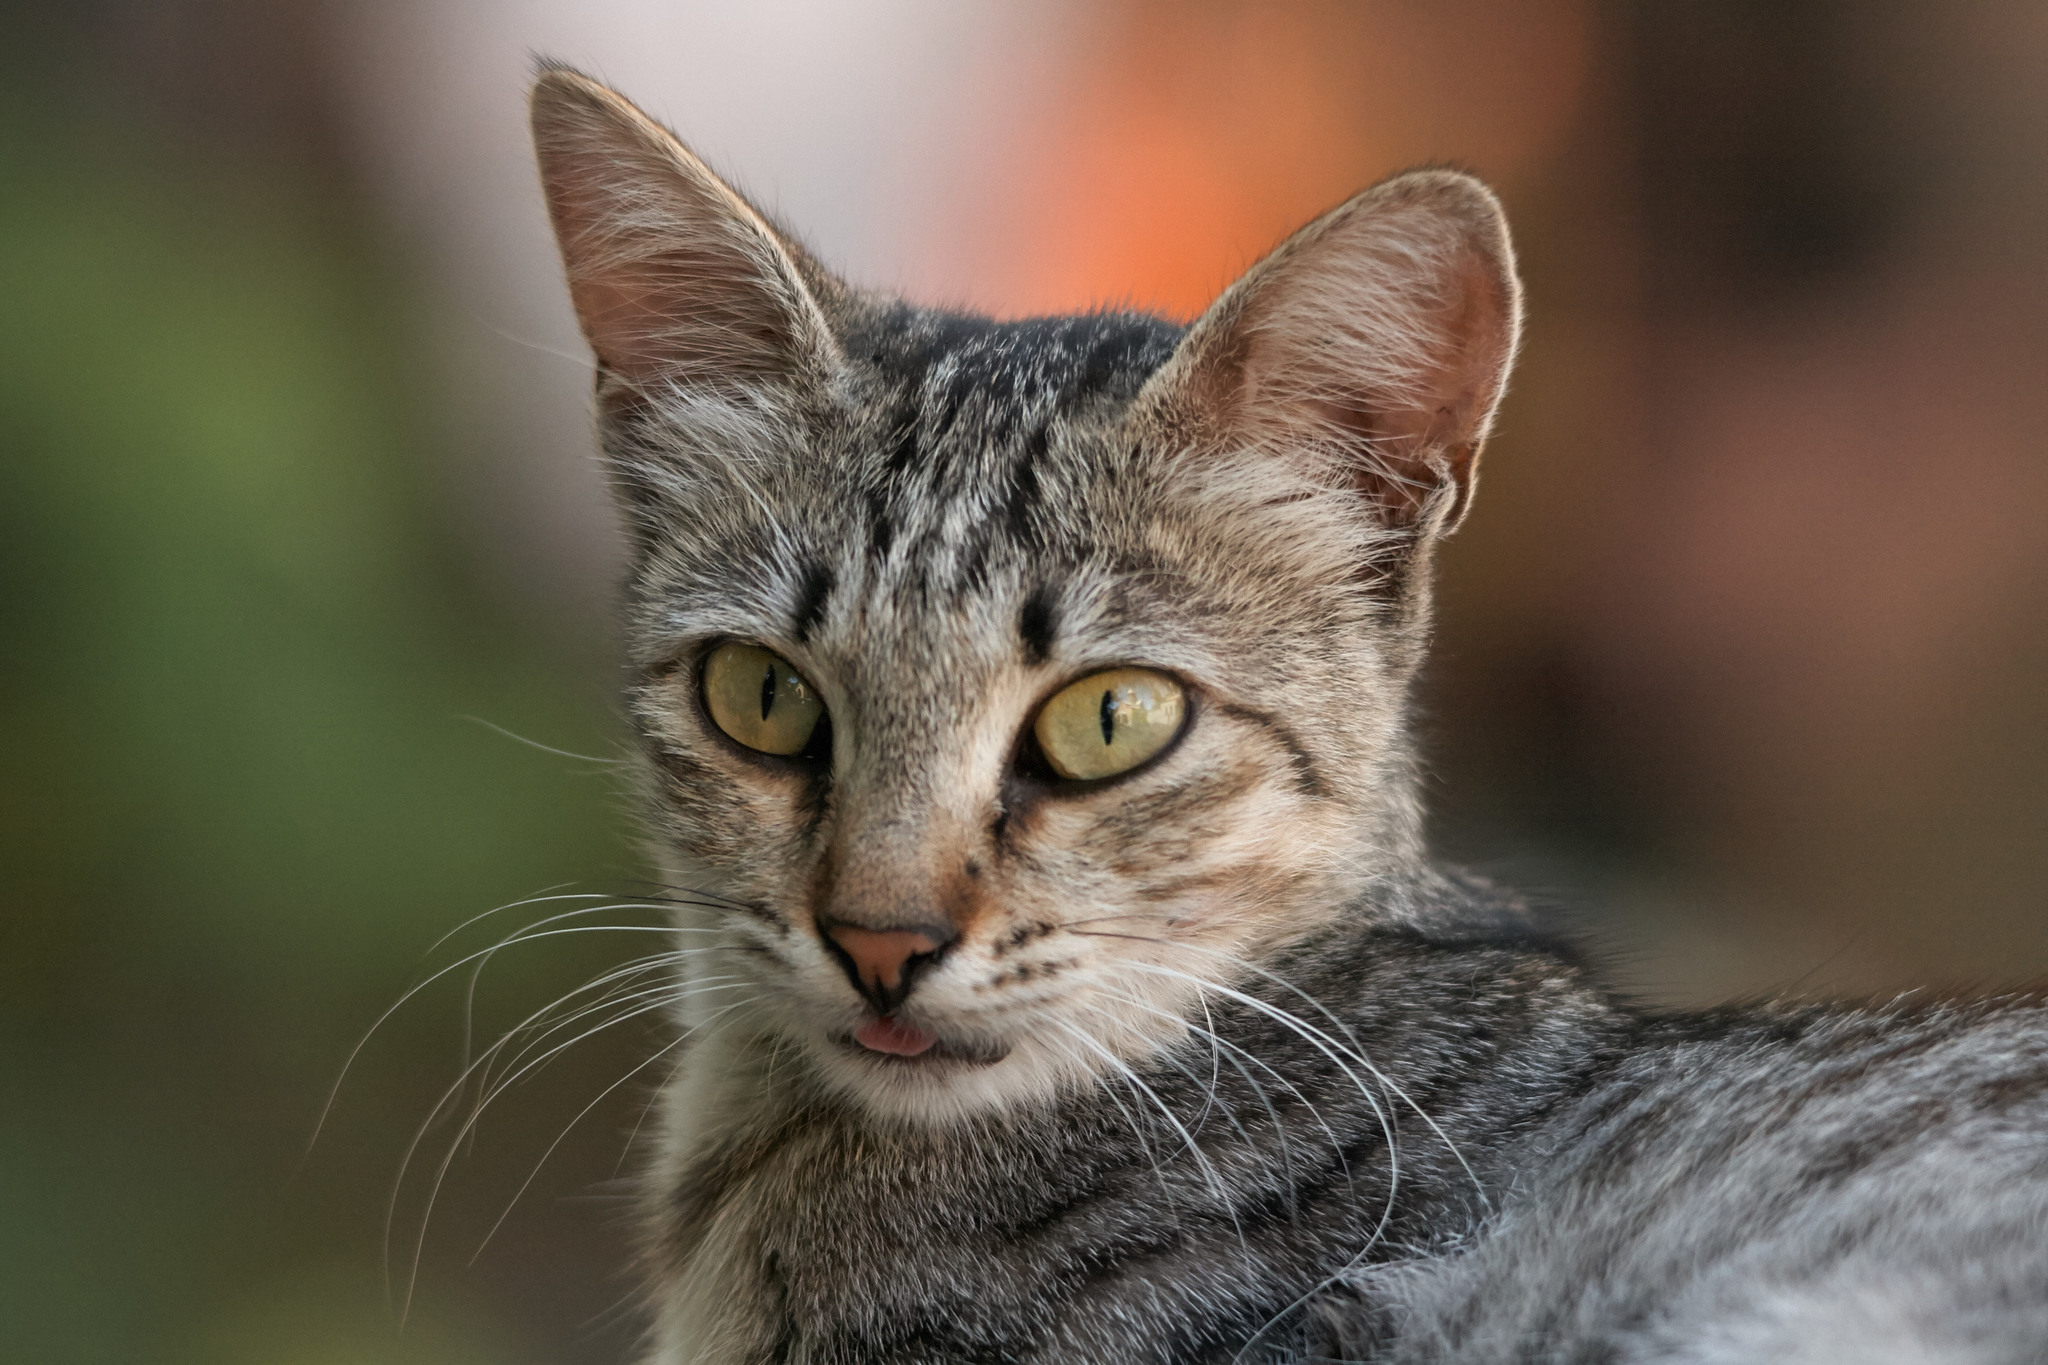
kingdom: Animalia
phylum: Chordata
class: Mammalia
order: Carnivora
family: Felidae
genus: Felis
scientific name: Felis catus
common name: Domestic cat
